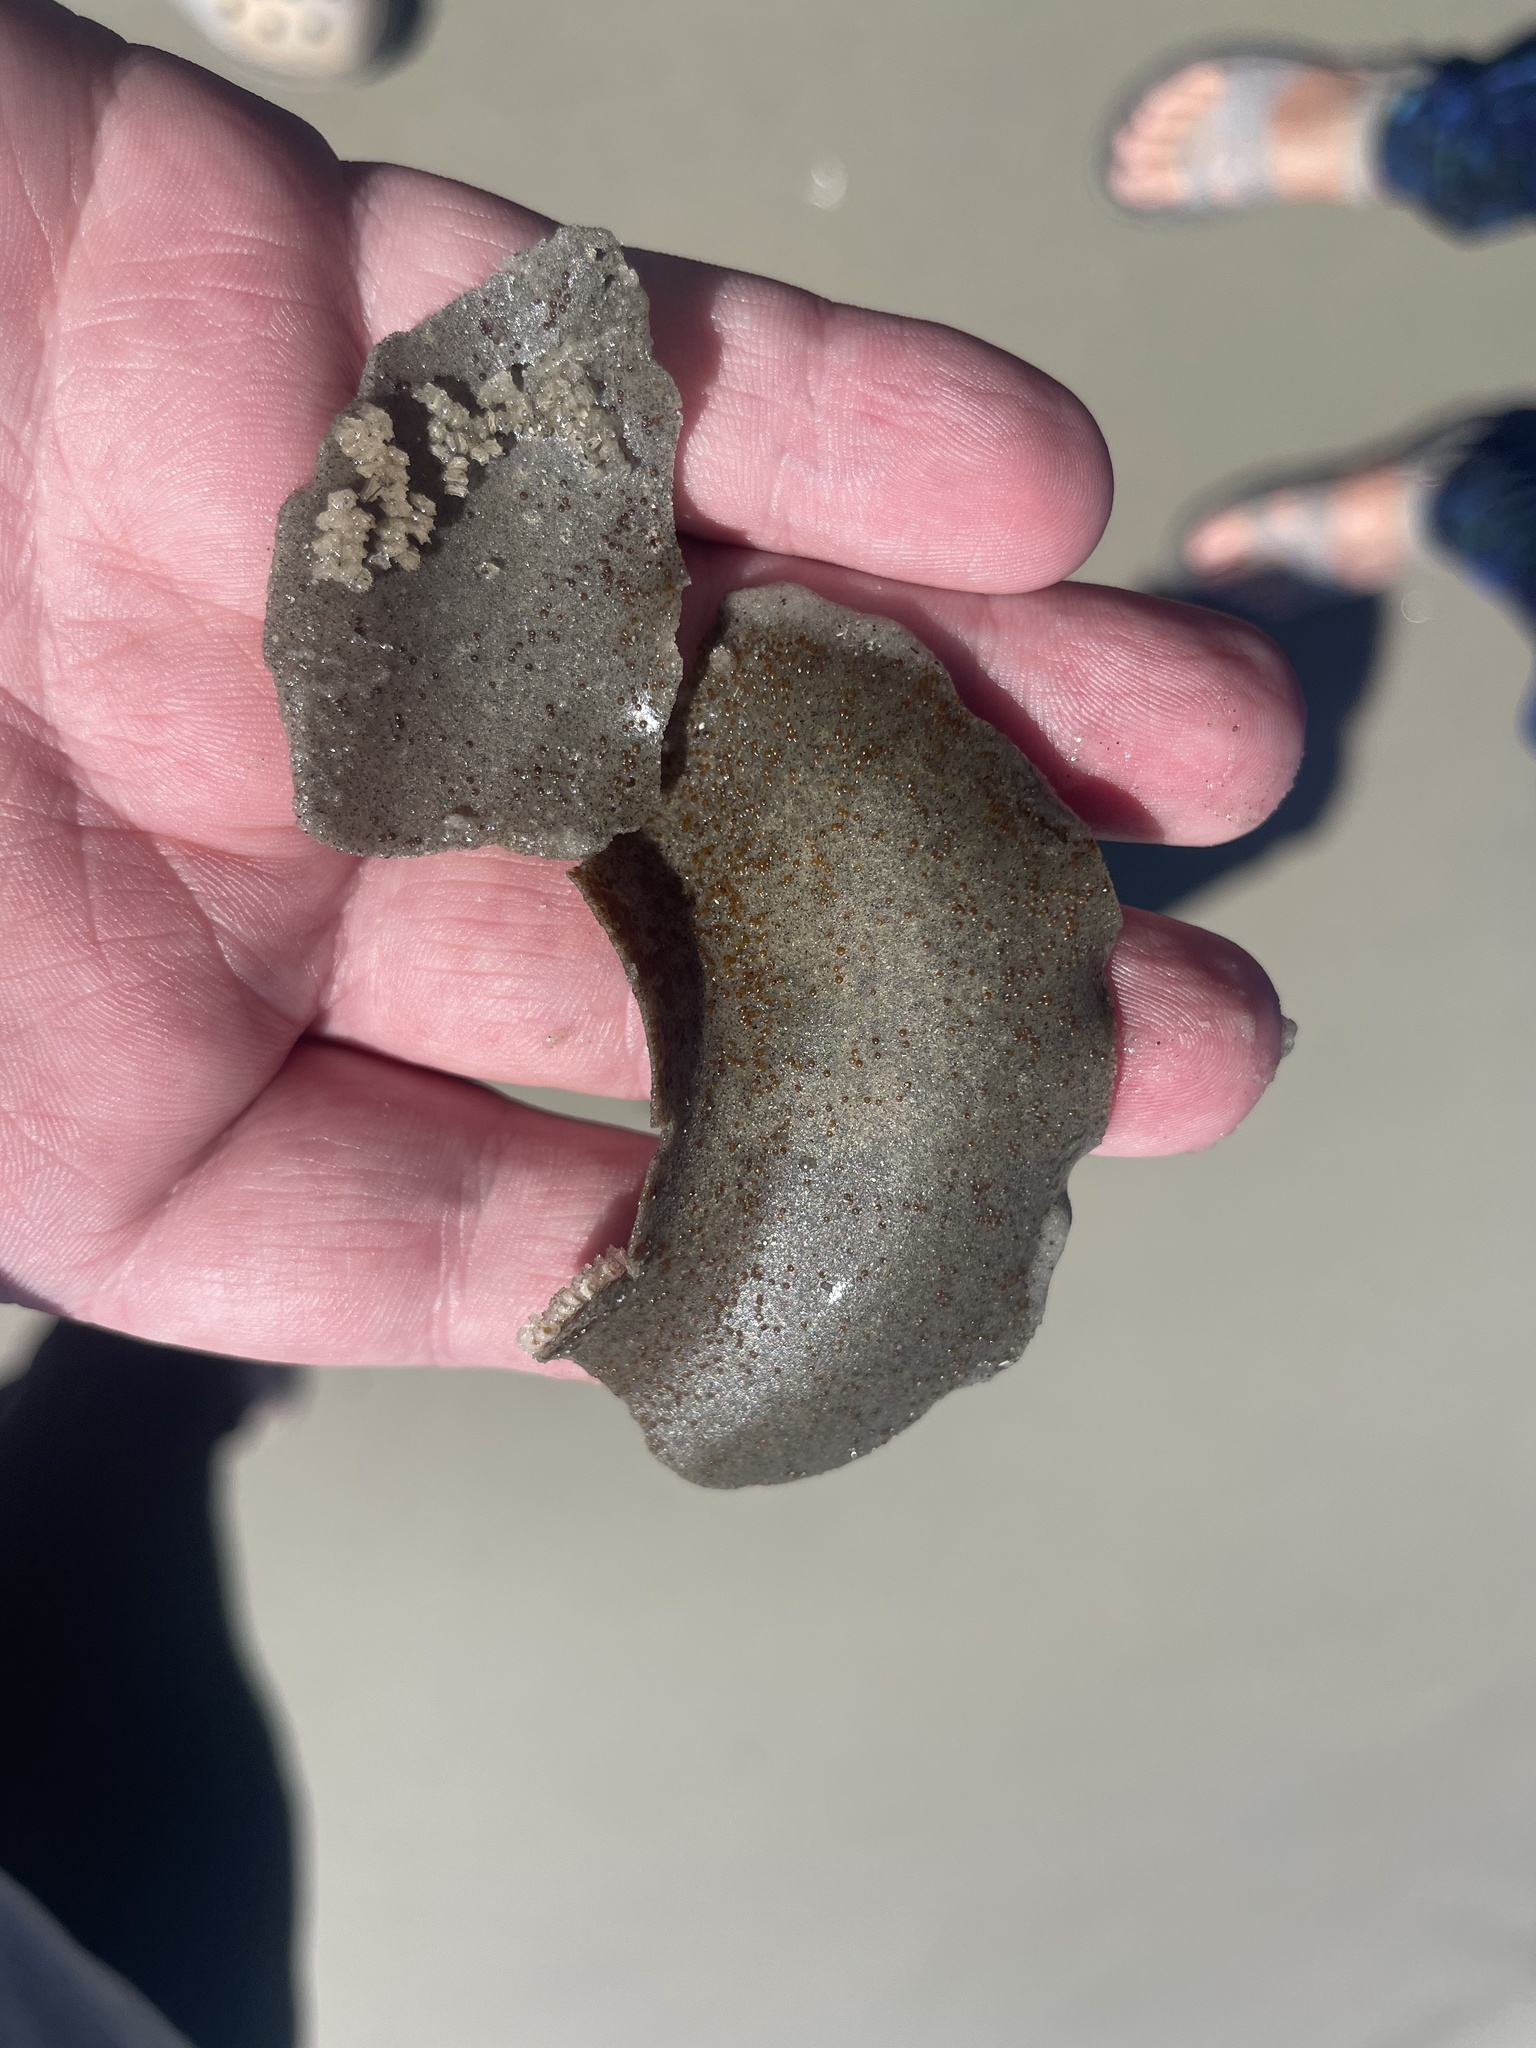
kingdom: Animalia
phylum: Mollusca
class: Gastropoda
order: Littorinimorpha
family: Naticidae
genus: Neverita
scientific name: Neverita duplicata
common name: Lobed moonsnail
